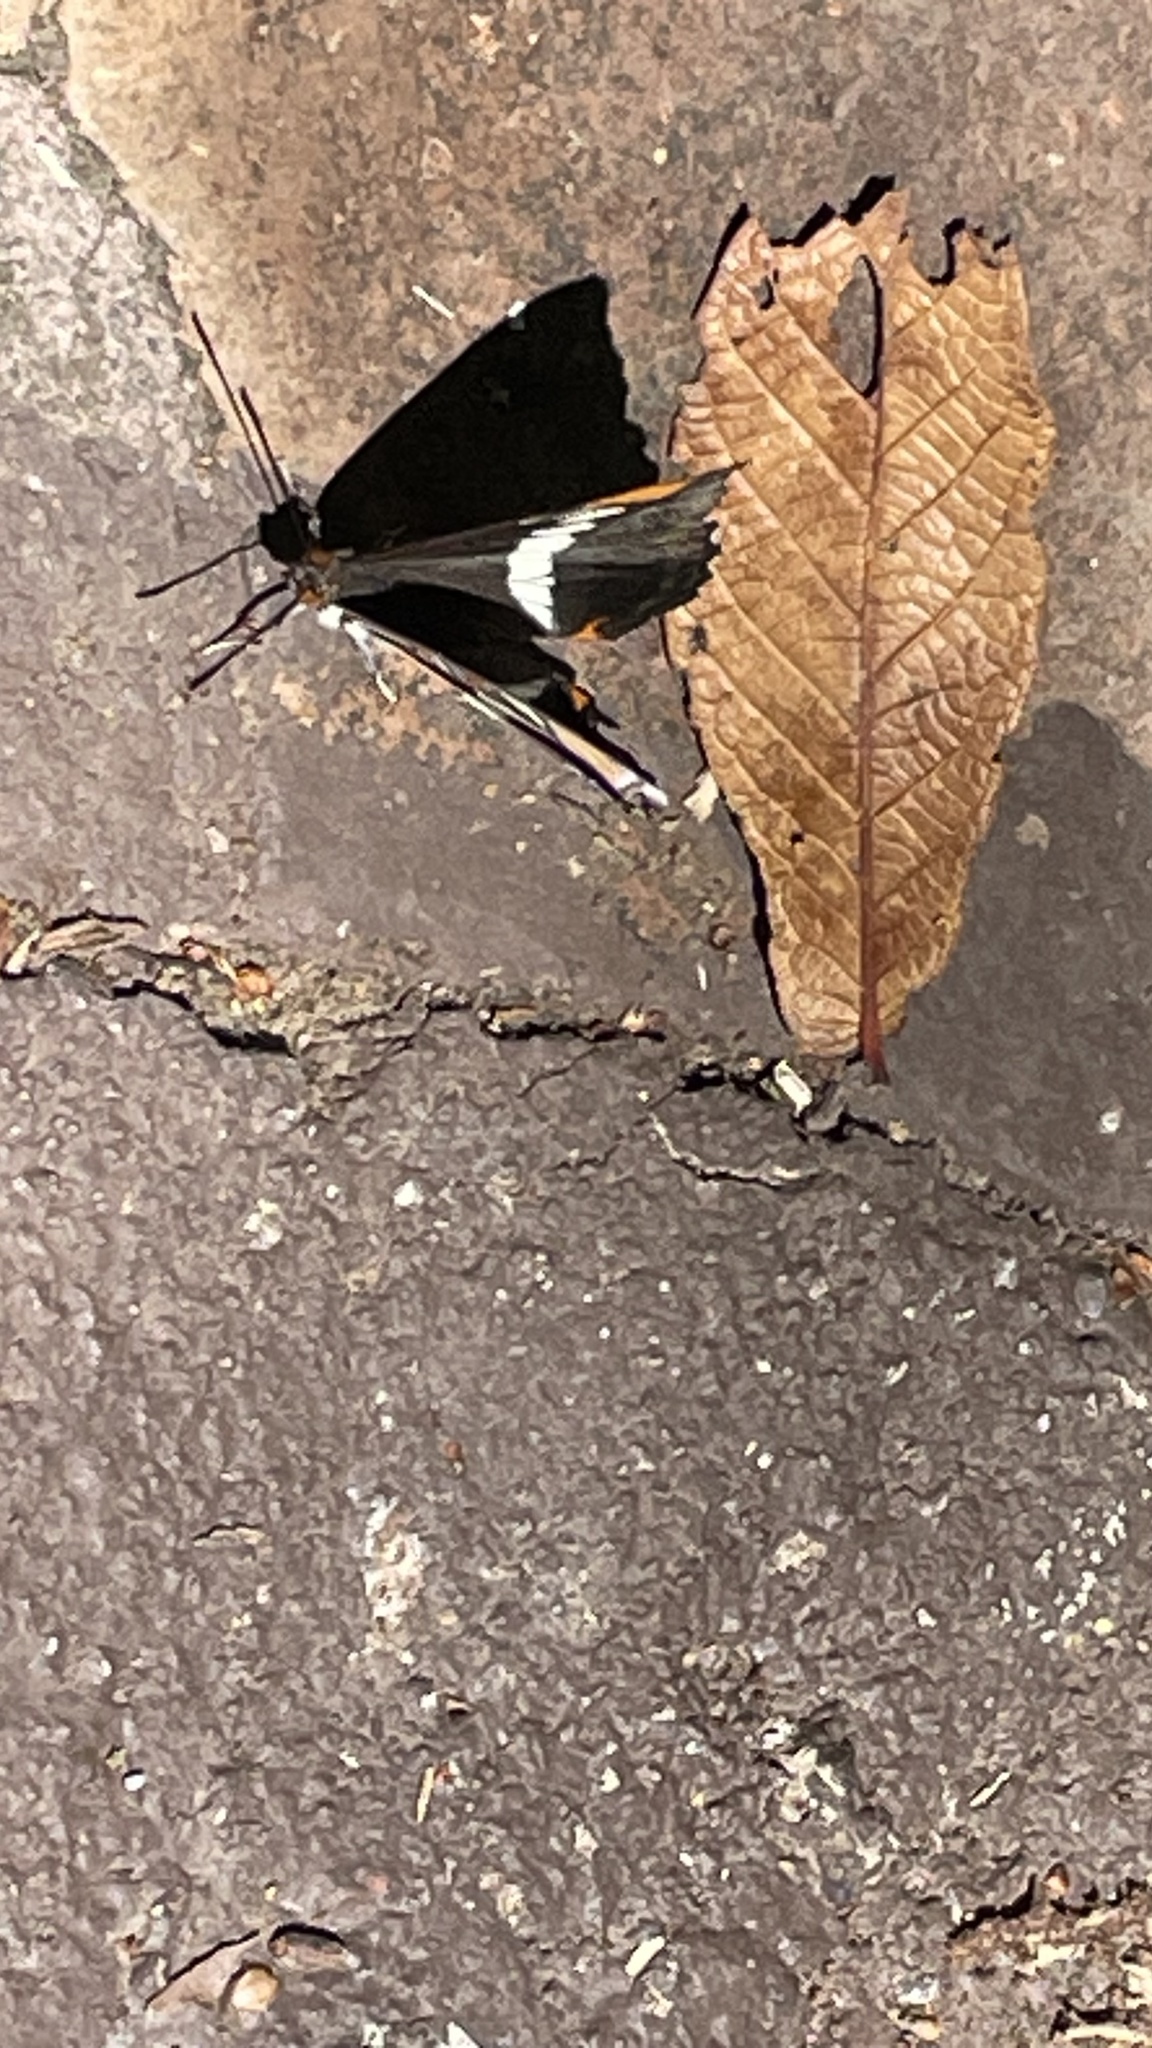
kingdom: Animalia
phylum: Arthropoda
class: Insecta
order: Lepidoptera
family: Nymphalidae
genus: Limenitis
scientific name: Limenitis bredowii
